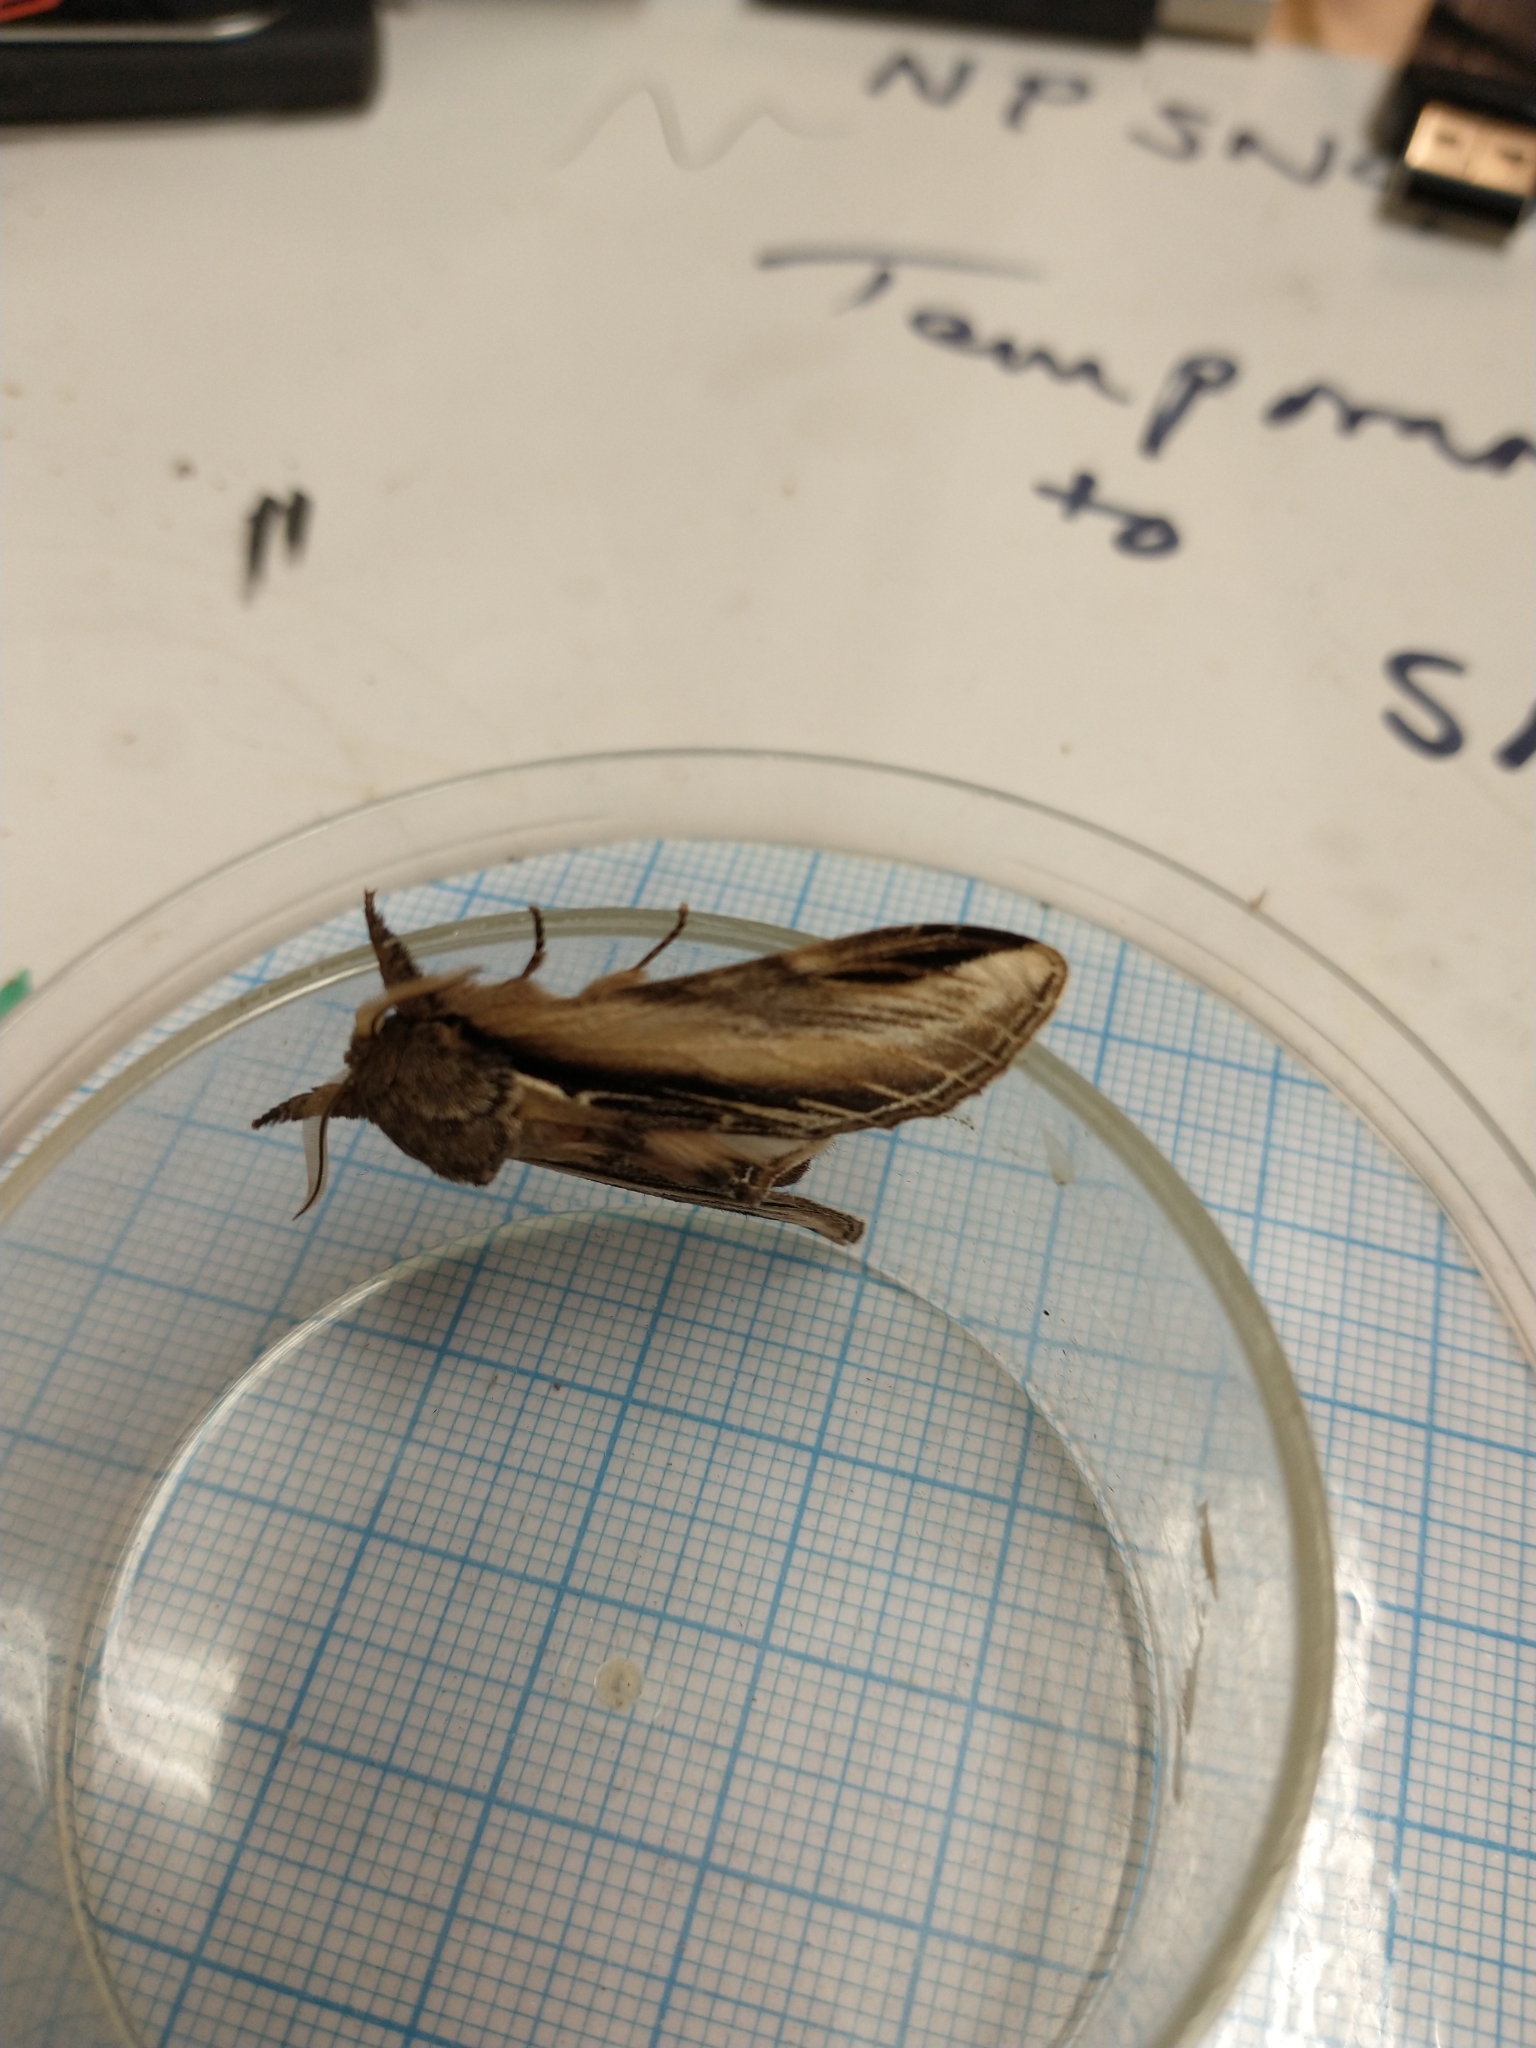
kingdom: Animalia
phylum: Arthropoda
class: Insecta
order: Lepidoptera
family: Notodontidae
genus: Pheosia
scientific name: Pheosia tremula
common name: Swallow prominent
